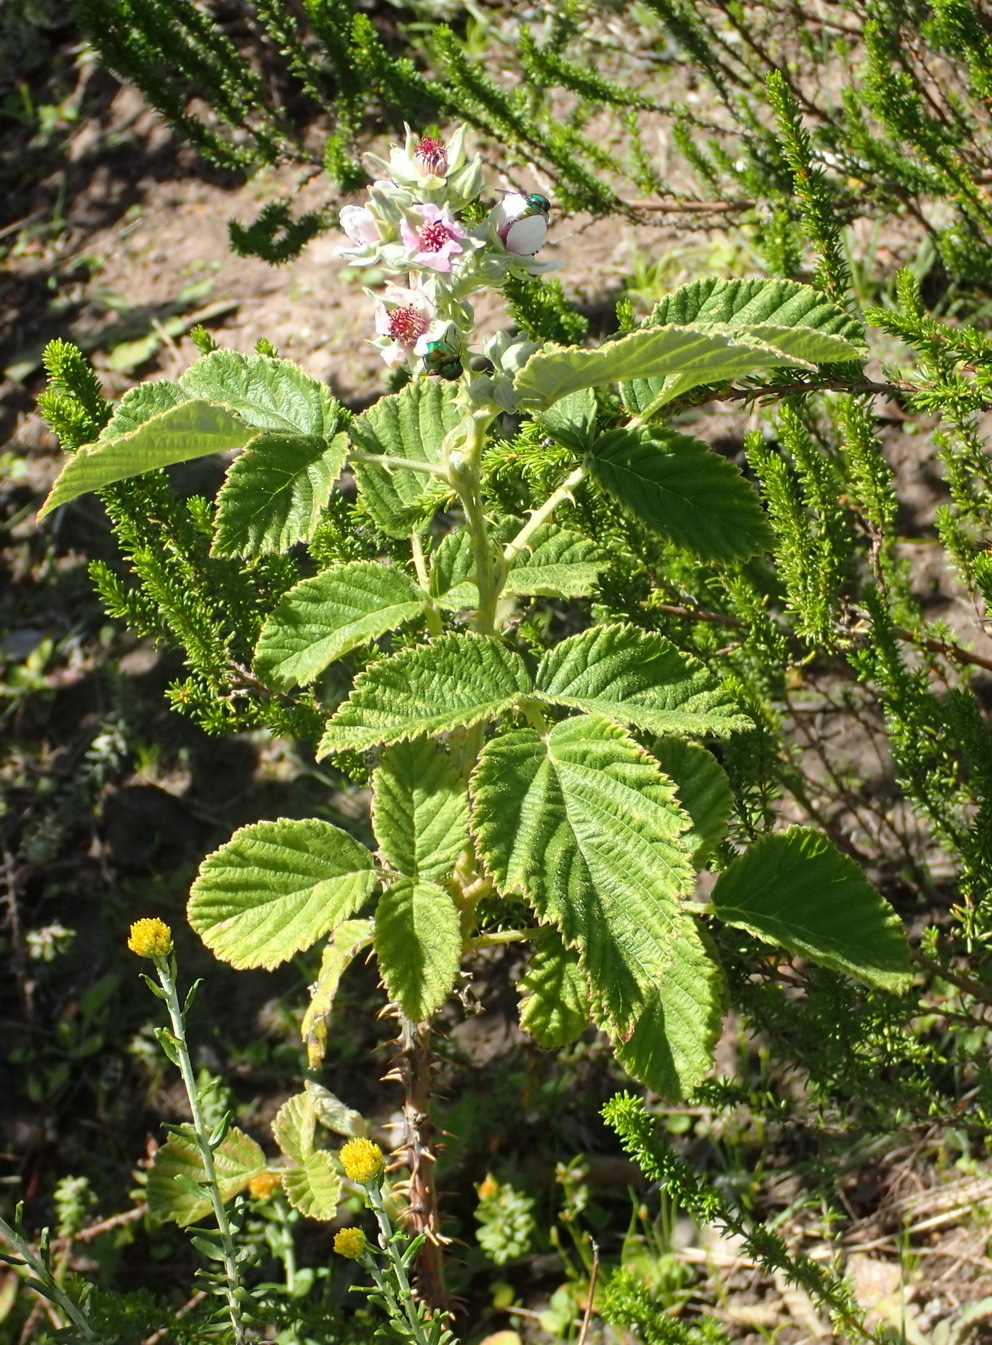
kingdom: Plantae
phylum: Tracheophyta
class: Magnoliopsida
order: Rosales
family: Rosaceae
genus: Rubus
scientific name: Rubus rigidus
